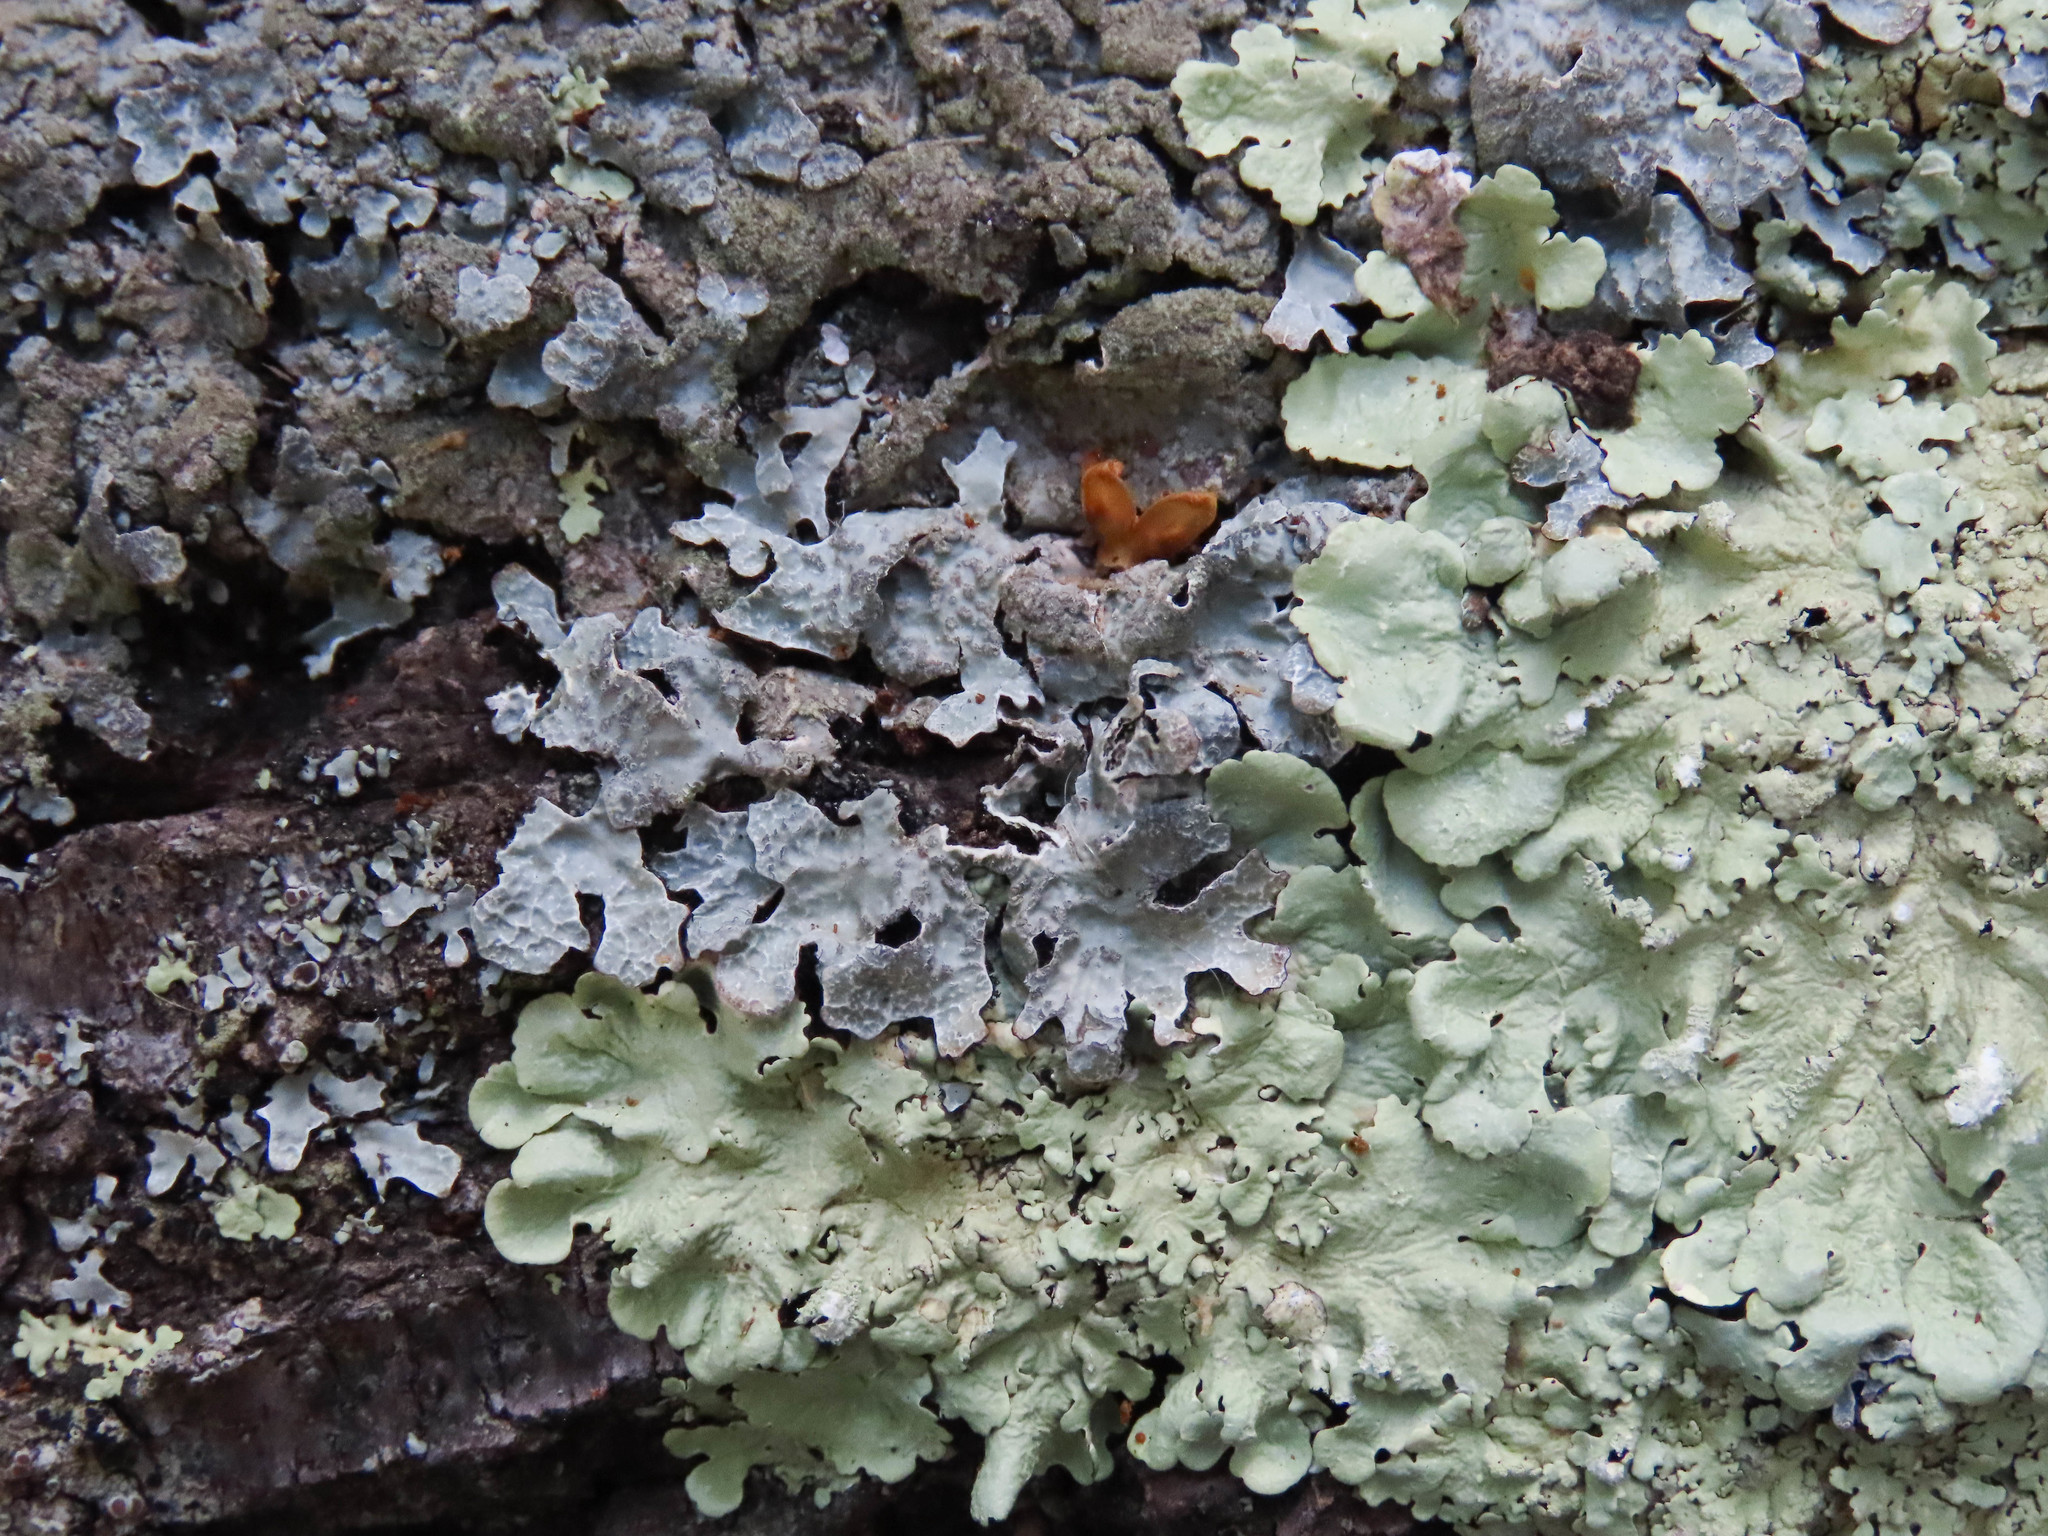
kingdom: Fungi
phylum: Ascomycota
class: Lecanoromycetes
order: Lecanorales
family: Parmeliaceae
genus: Parmelia
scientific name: Parmelia sulcata
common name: Netted shield lichen
